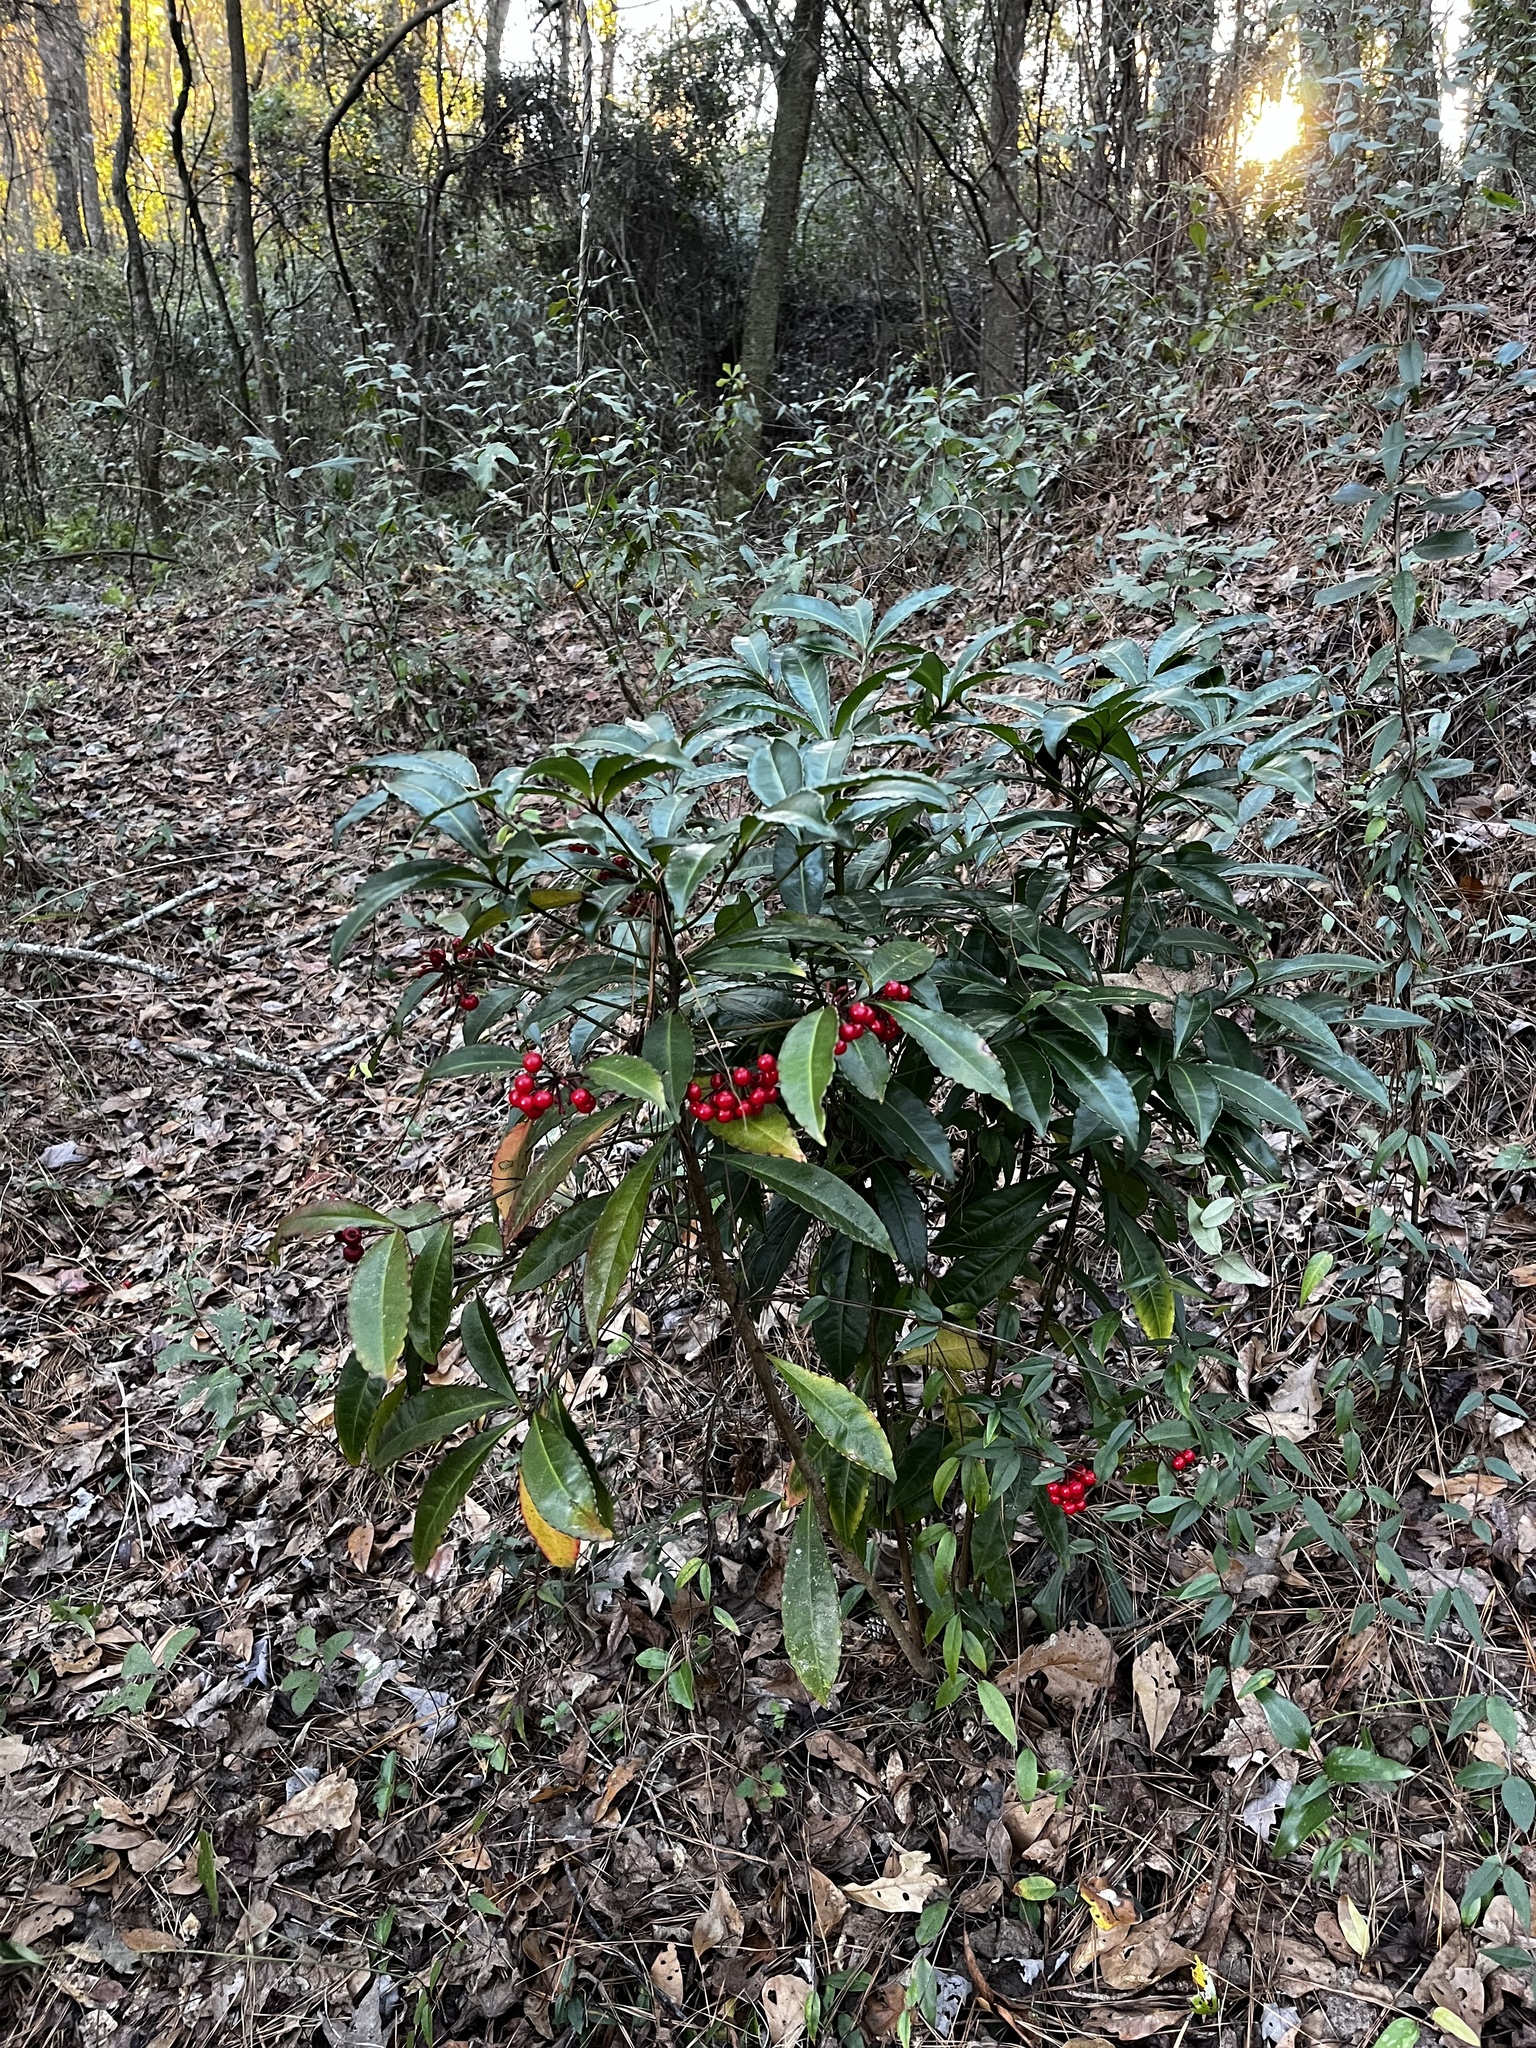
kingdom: Plantae
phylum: Tracheophyta
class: Magnoliopsida
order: Ericales
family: Primulaceae
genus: Ardisia
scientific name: Ardisia crenata
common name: Hen's eyes
